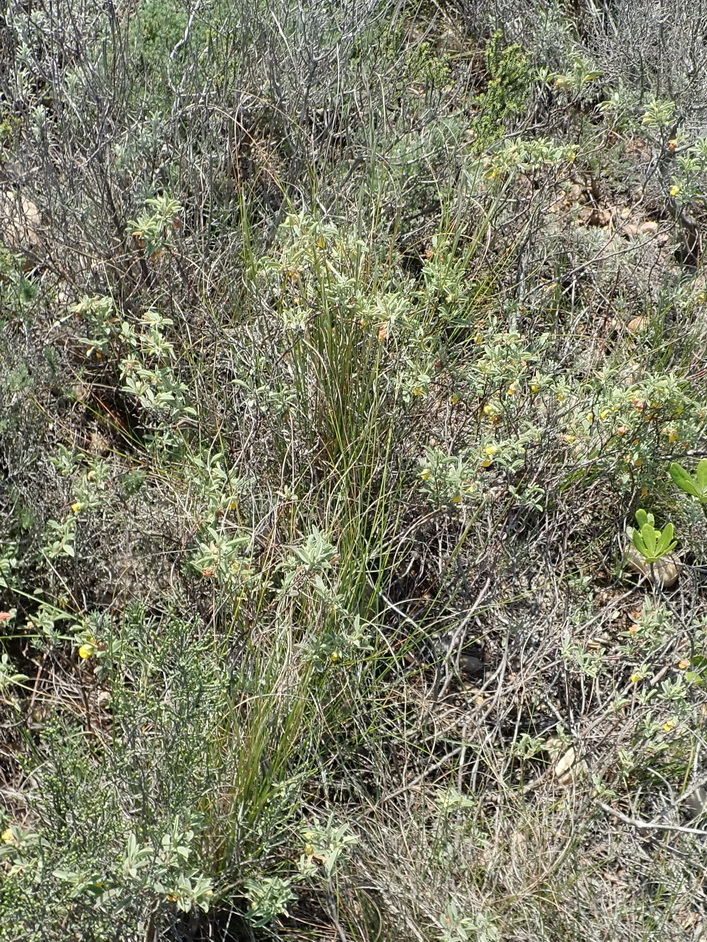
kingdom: Plantae
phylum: Tracheophyta
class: Magnoliopsida
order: Malvales
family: Malvaceae
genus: Hermannia
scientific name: Hermannia lavandulifolia
